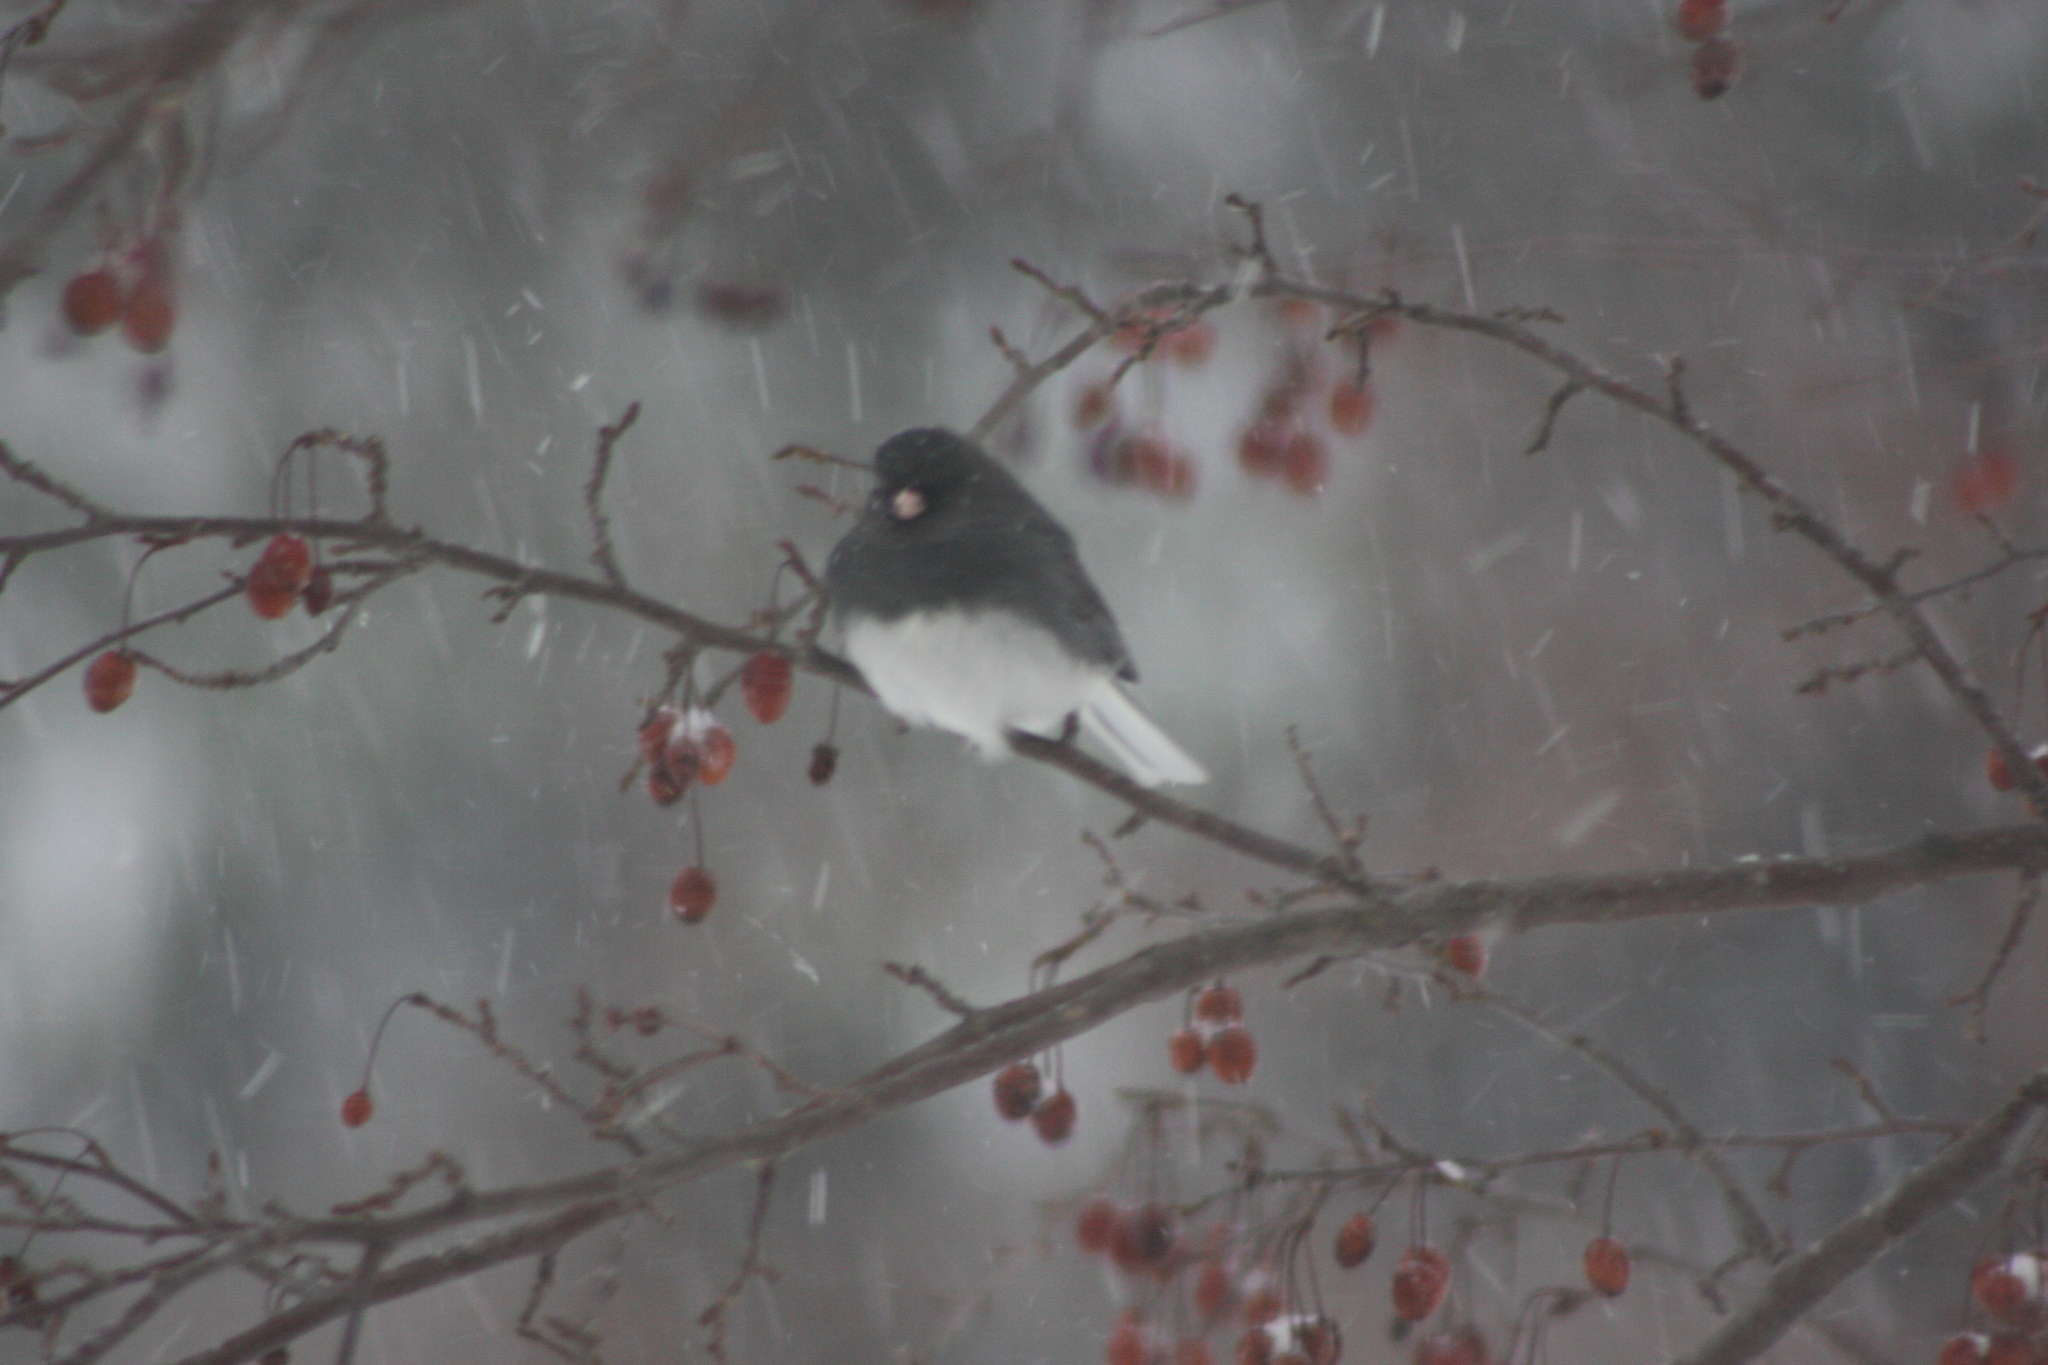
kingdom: Animalia
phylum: Chordata
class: Aves
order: Passeriformes
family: Passerellidae
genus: Junco
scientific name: Junco hyemalis
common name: Dark-eyed junco
